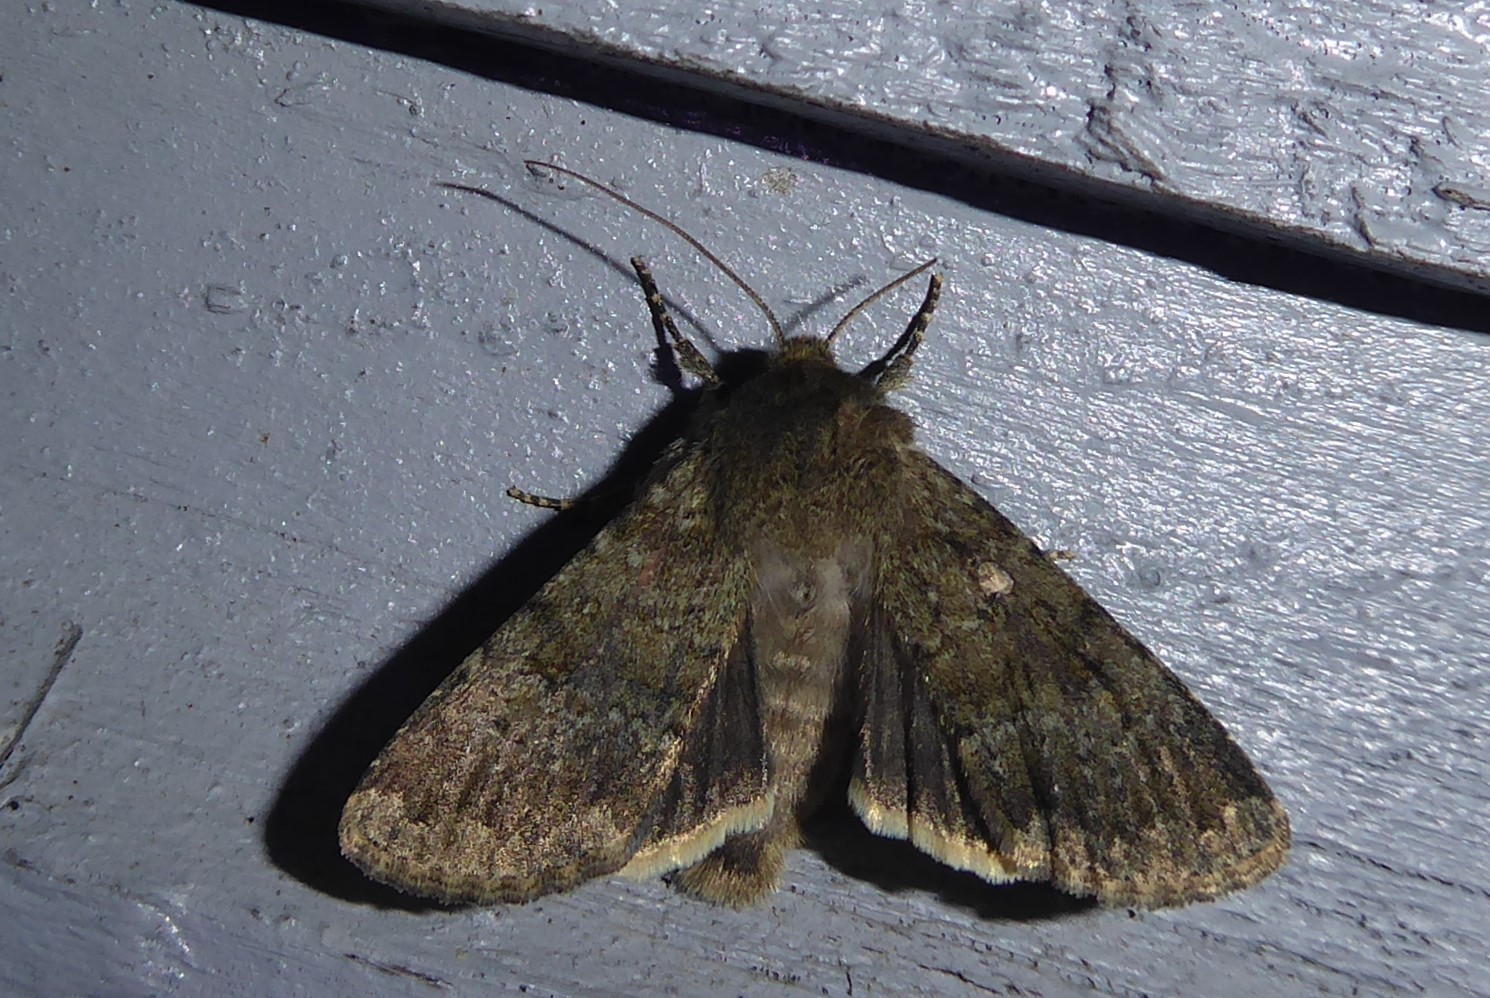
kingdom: Animalia
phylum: Arthropoda
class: Insecta
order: Lepidoptera
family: Noctuidae
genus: Ichneutica
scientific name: Ichneutica moderata
